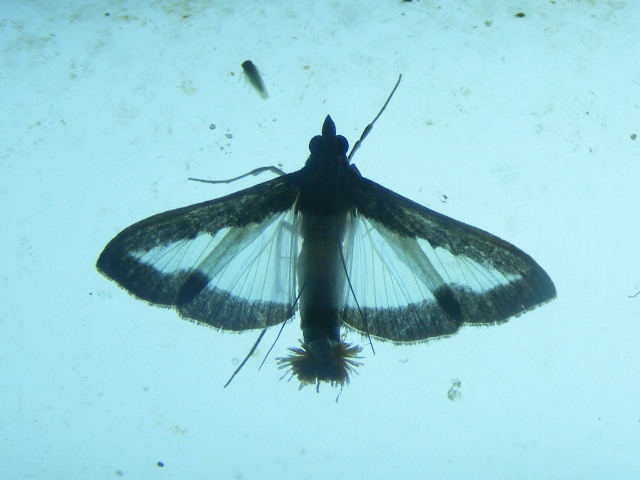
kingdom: Animalia
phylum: Arthropoda
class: Insecta
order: Lepidoptera
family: Crambidae
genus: Diaphania
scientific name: Diaphania indica
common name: Cucumber moth
